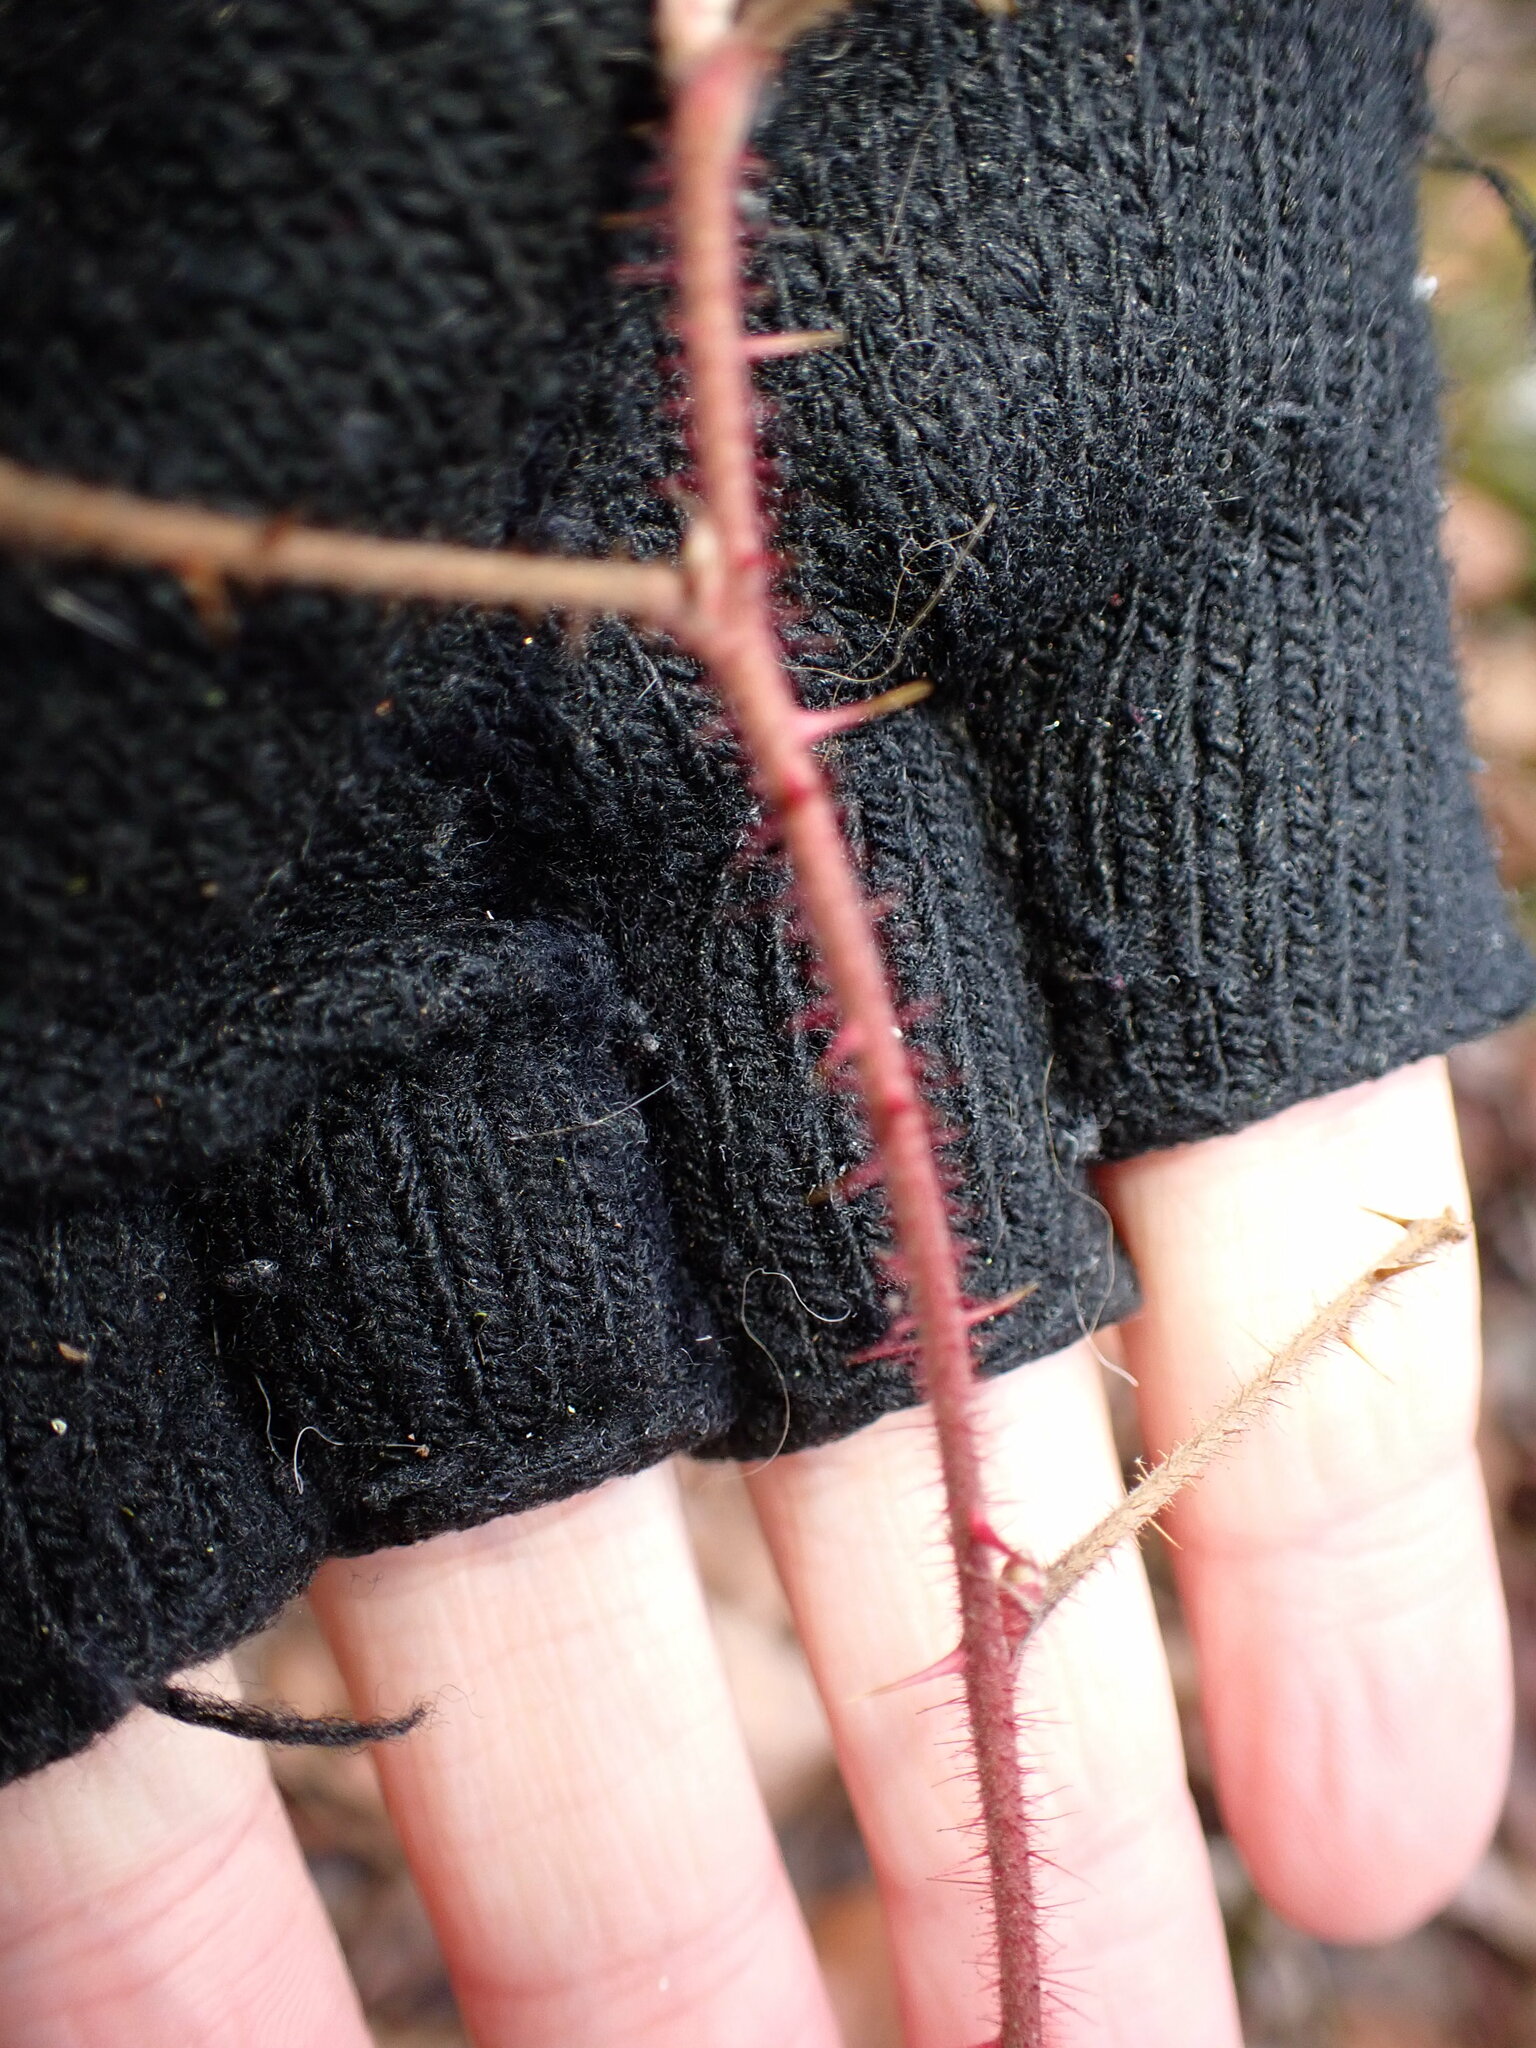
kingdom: Plantae
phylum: Tracheophyta
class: Magnoliopsida
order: Rosales
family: Rosaceae
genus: Rubus
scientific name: Rubus phoenicolasius
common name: Japanese wineberry
